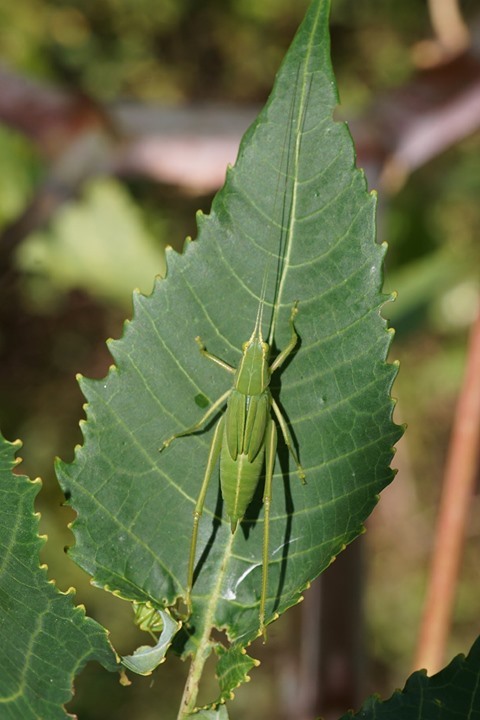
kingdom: Animalia
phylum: Arthropoda
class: Insecta
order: Orthoptera
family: Tettigoniidae
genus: Turpilia
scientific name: Turpilia rostrata
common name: Narrow-beaked katydid
